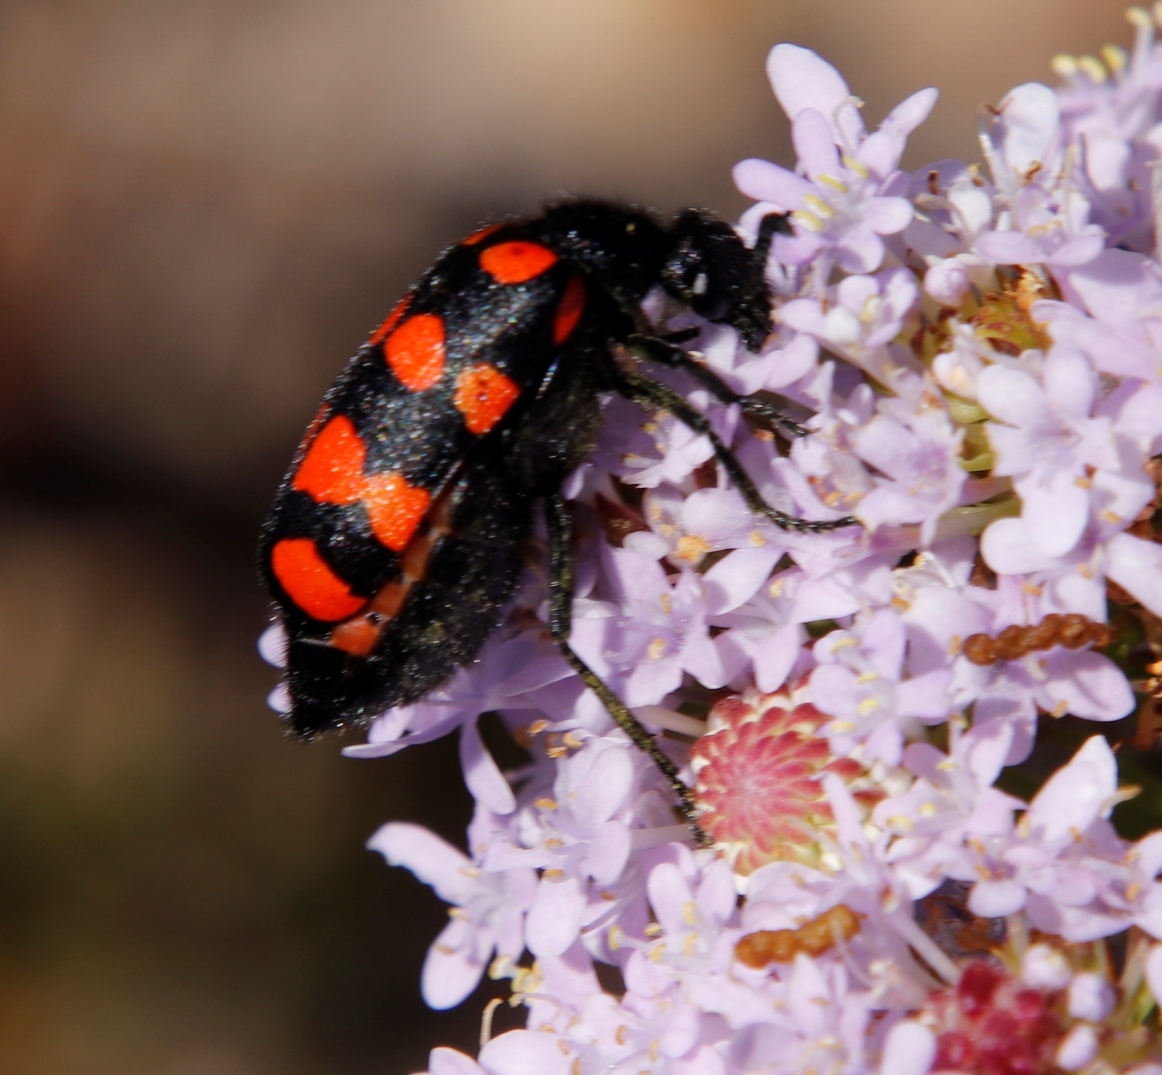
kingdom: Animalia
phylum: Arthropoda
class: Insecta
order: Coleoptera
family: Meloidae
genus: Ceroctis
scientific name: Ceroctis gyllenhalli
